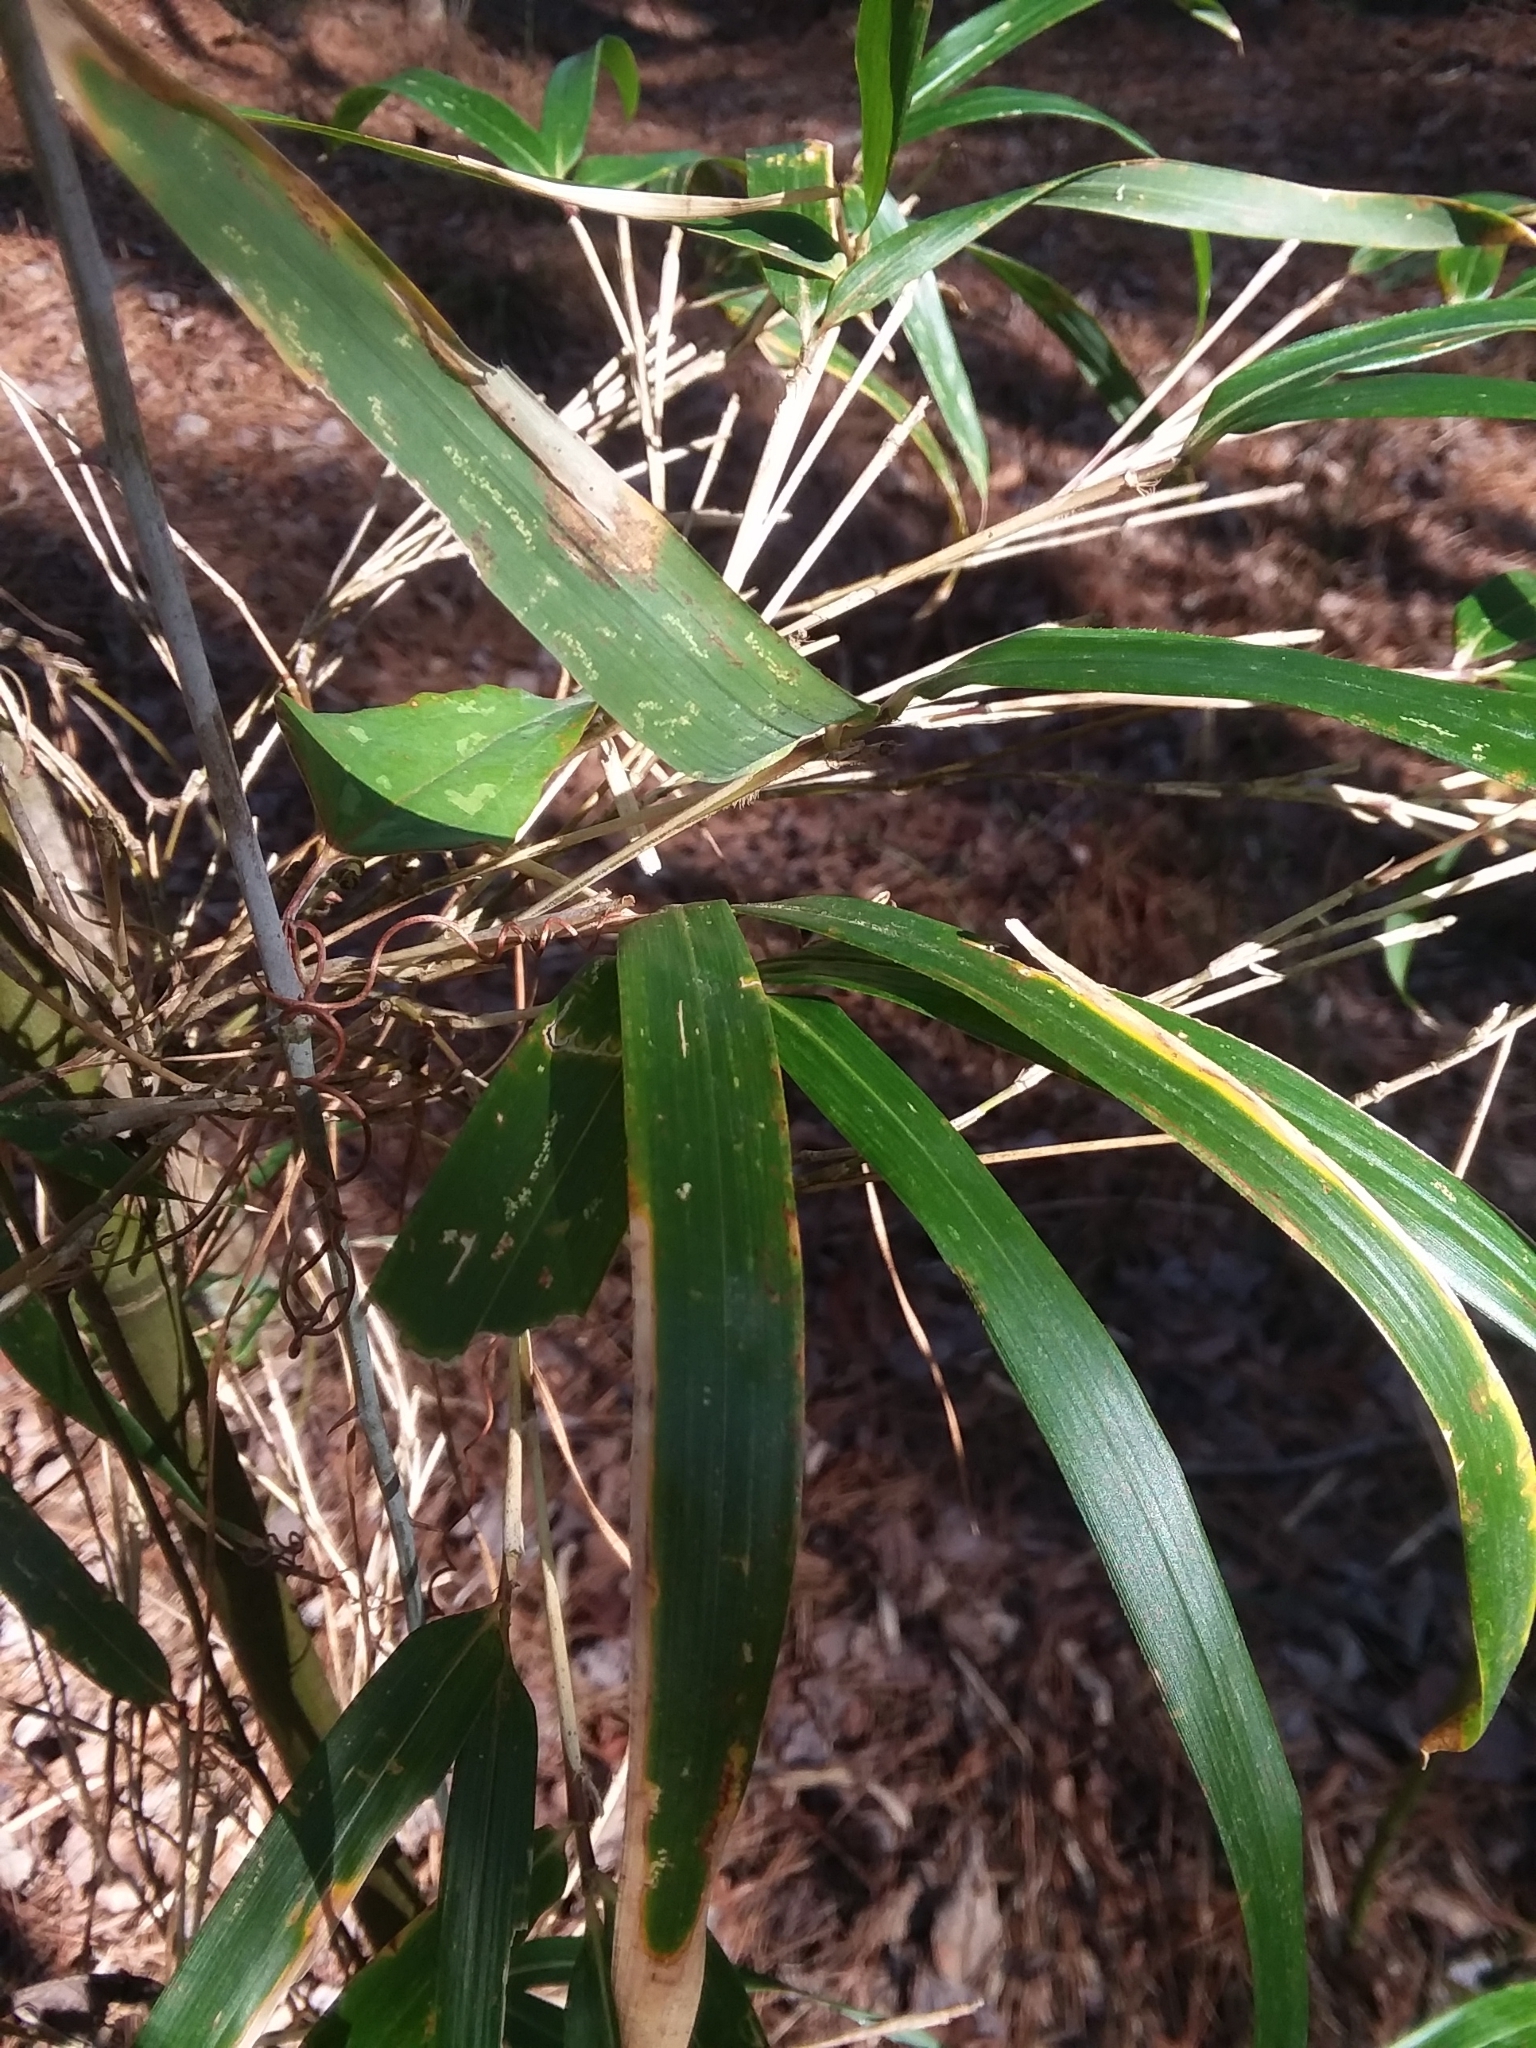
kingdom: Plantae
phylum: Tracheophyta
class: Liliopsida
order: Poales
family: Poaceae
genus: Arundinaria
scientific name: Arundinaria gigantea
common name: Giant cane
